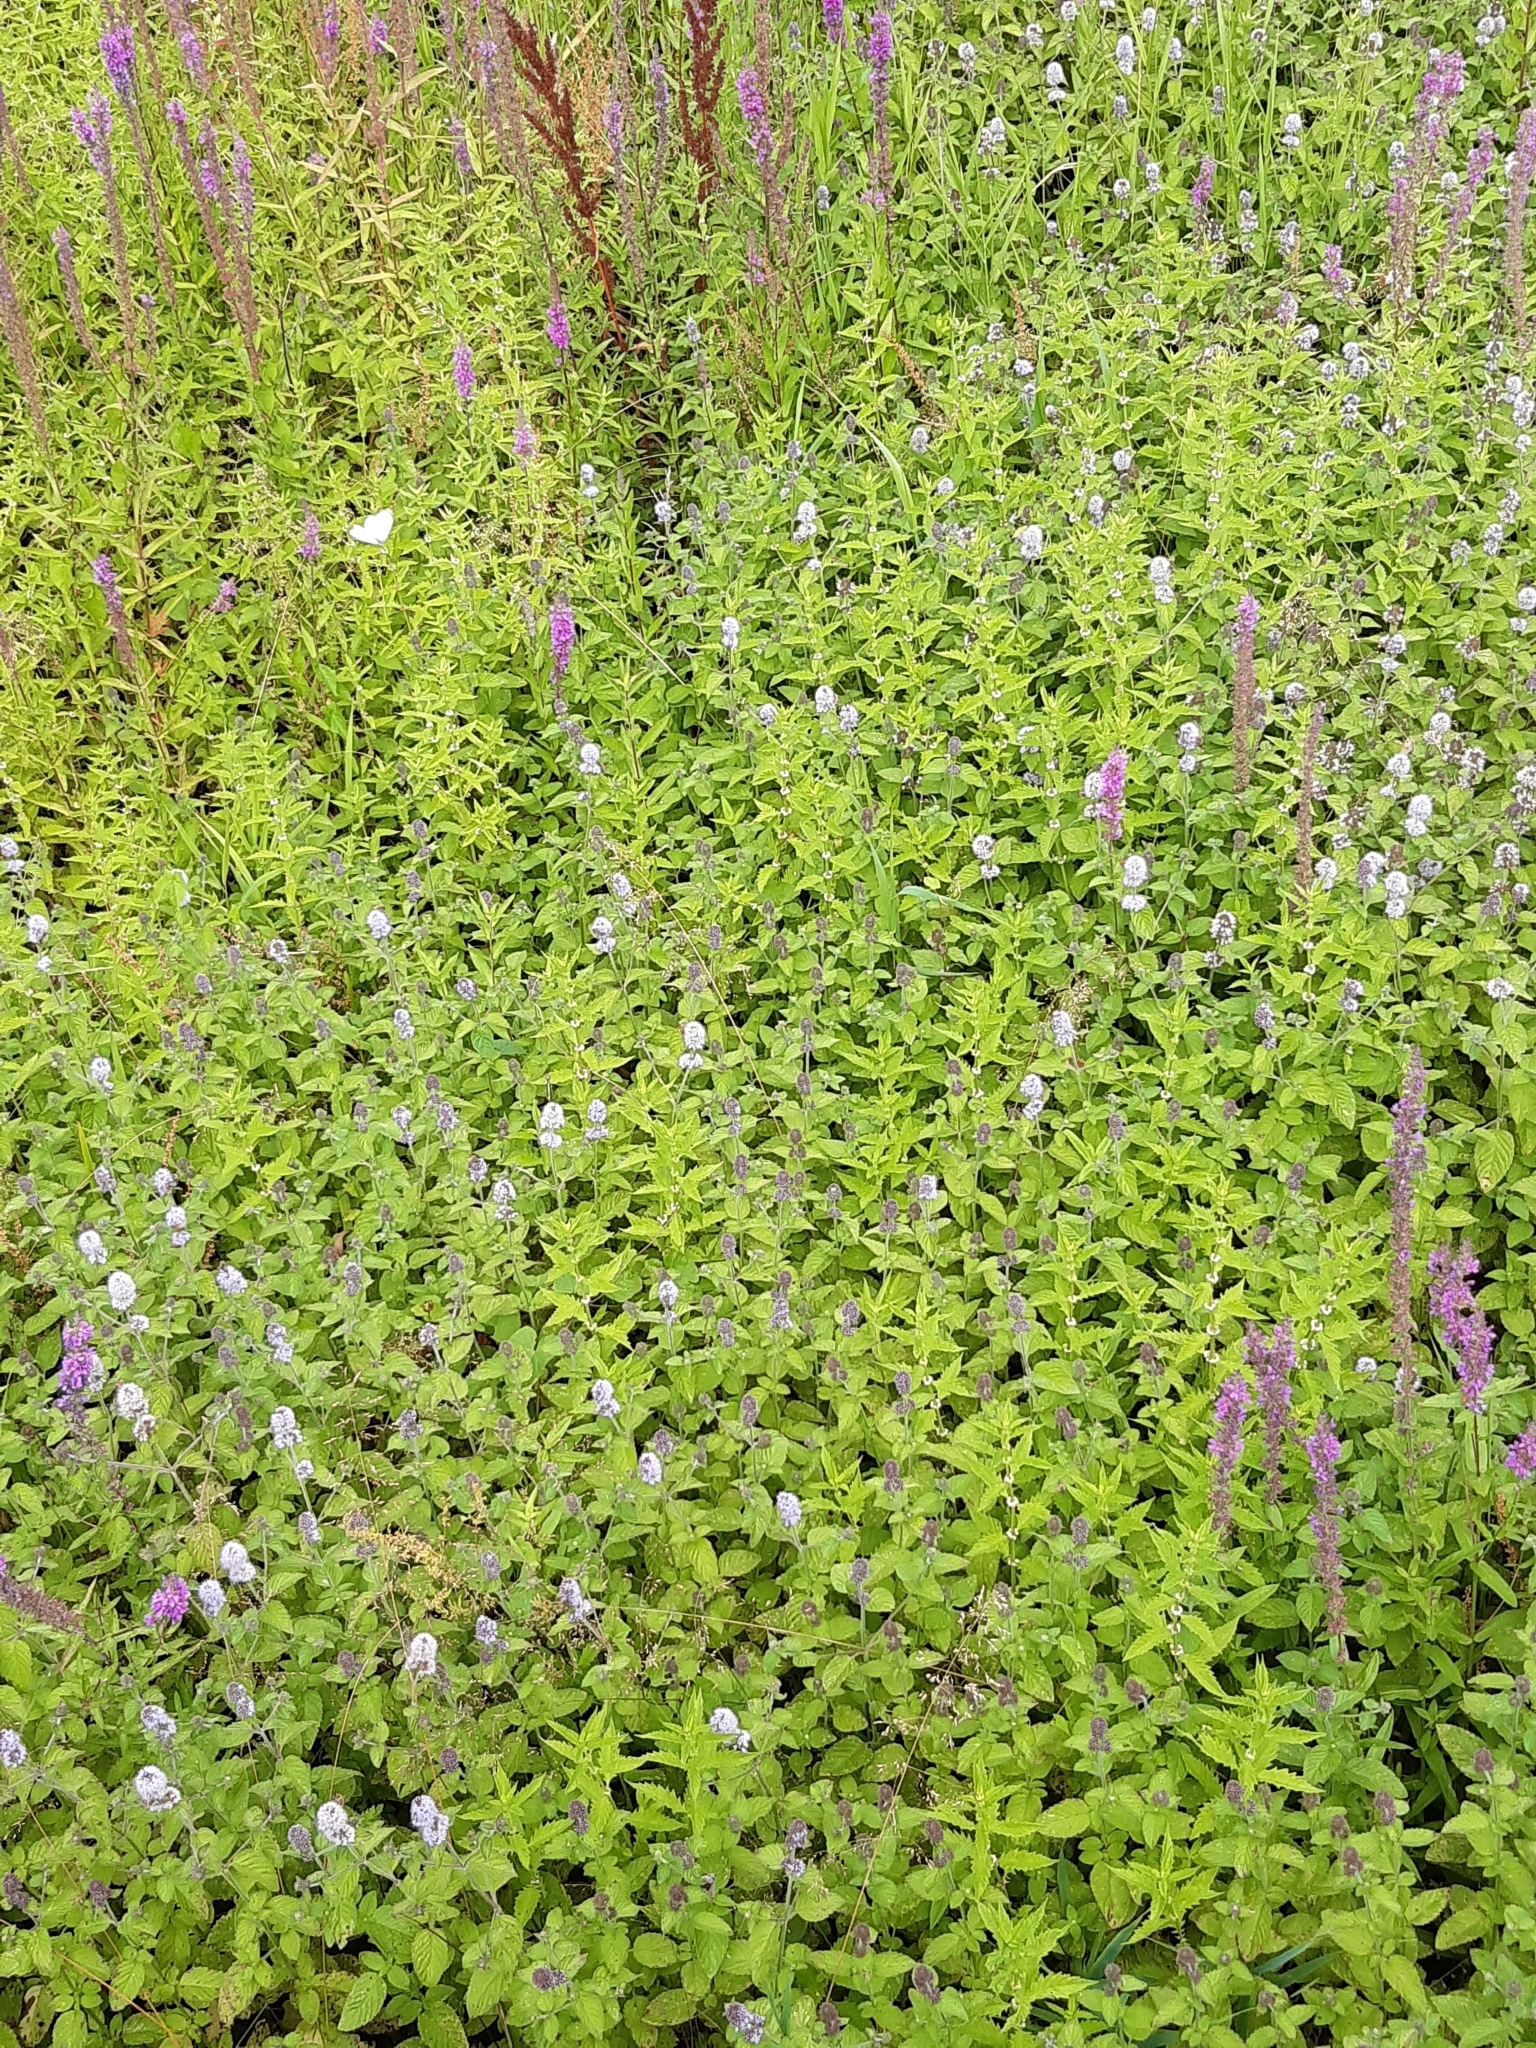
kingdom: Plantae
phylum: Tracheophyta
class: Magnoliopsida
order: Lamiales
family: Lamiaceae
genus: Mentha
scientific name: Mentha aquatica
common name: Water mint
